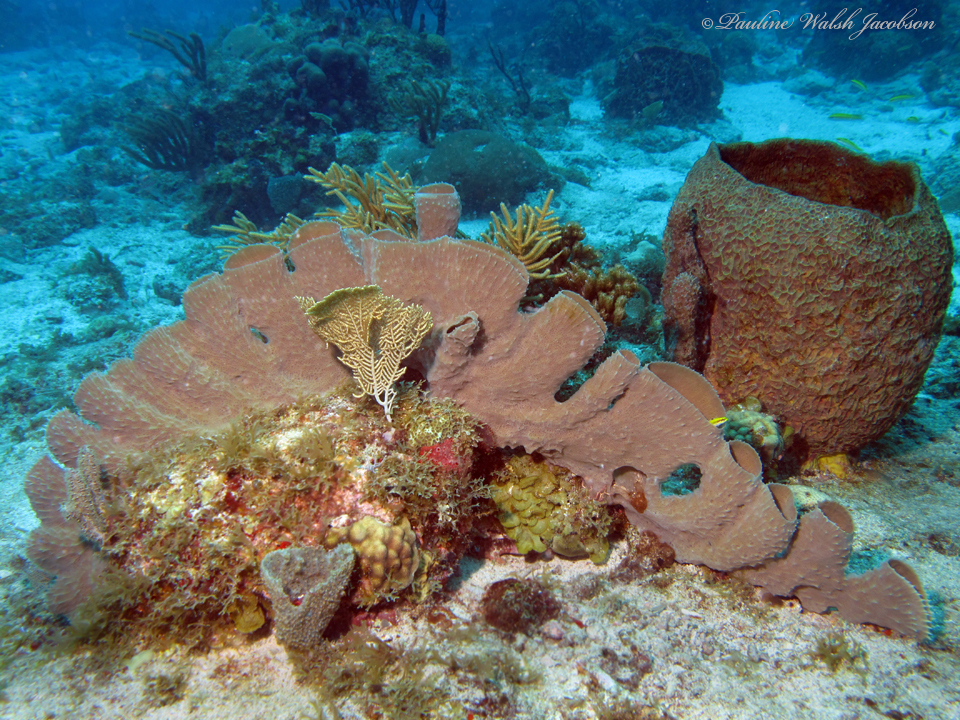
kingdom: Animalia
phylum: Porifera
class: Demospongiae
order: Verongiida
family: Aplysinidae
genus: Verongula
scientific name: Verongula gigantea
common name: Netted barrel sponge
